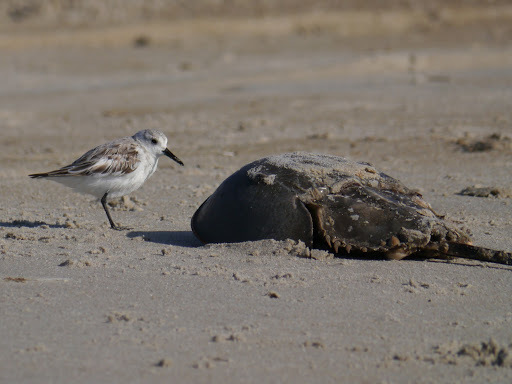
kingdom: Animalia
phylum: Chordata
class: Aves
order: Charadriiformes
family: Scolopacidae
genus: Calidris
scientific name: Calidris alba
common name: Sanderling
